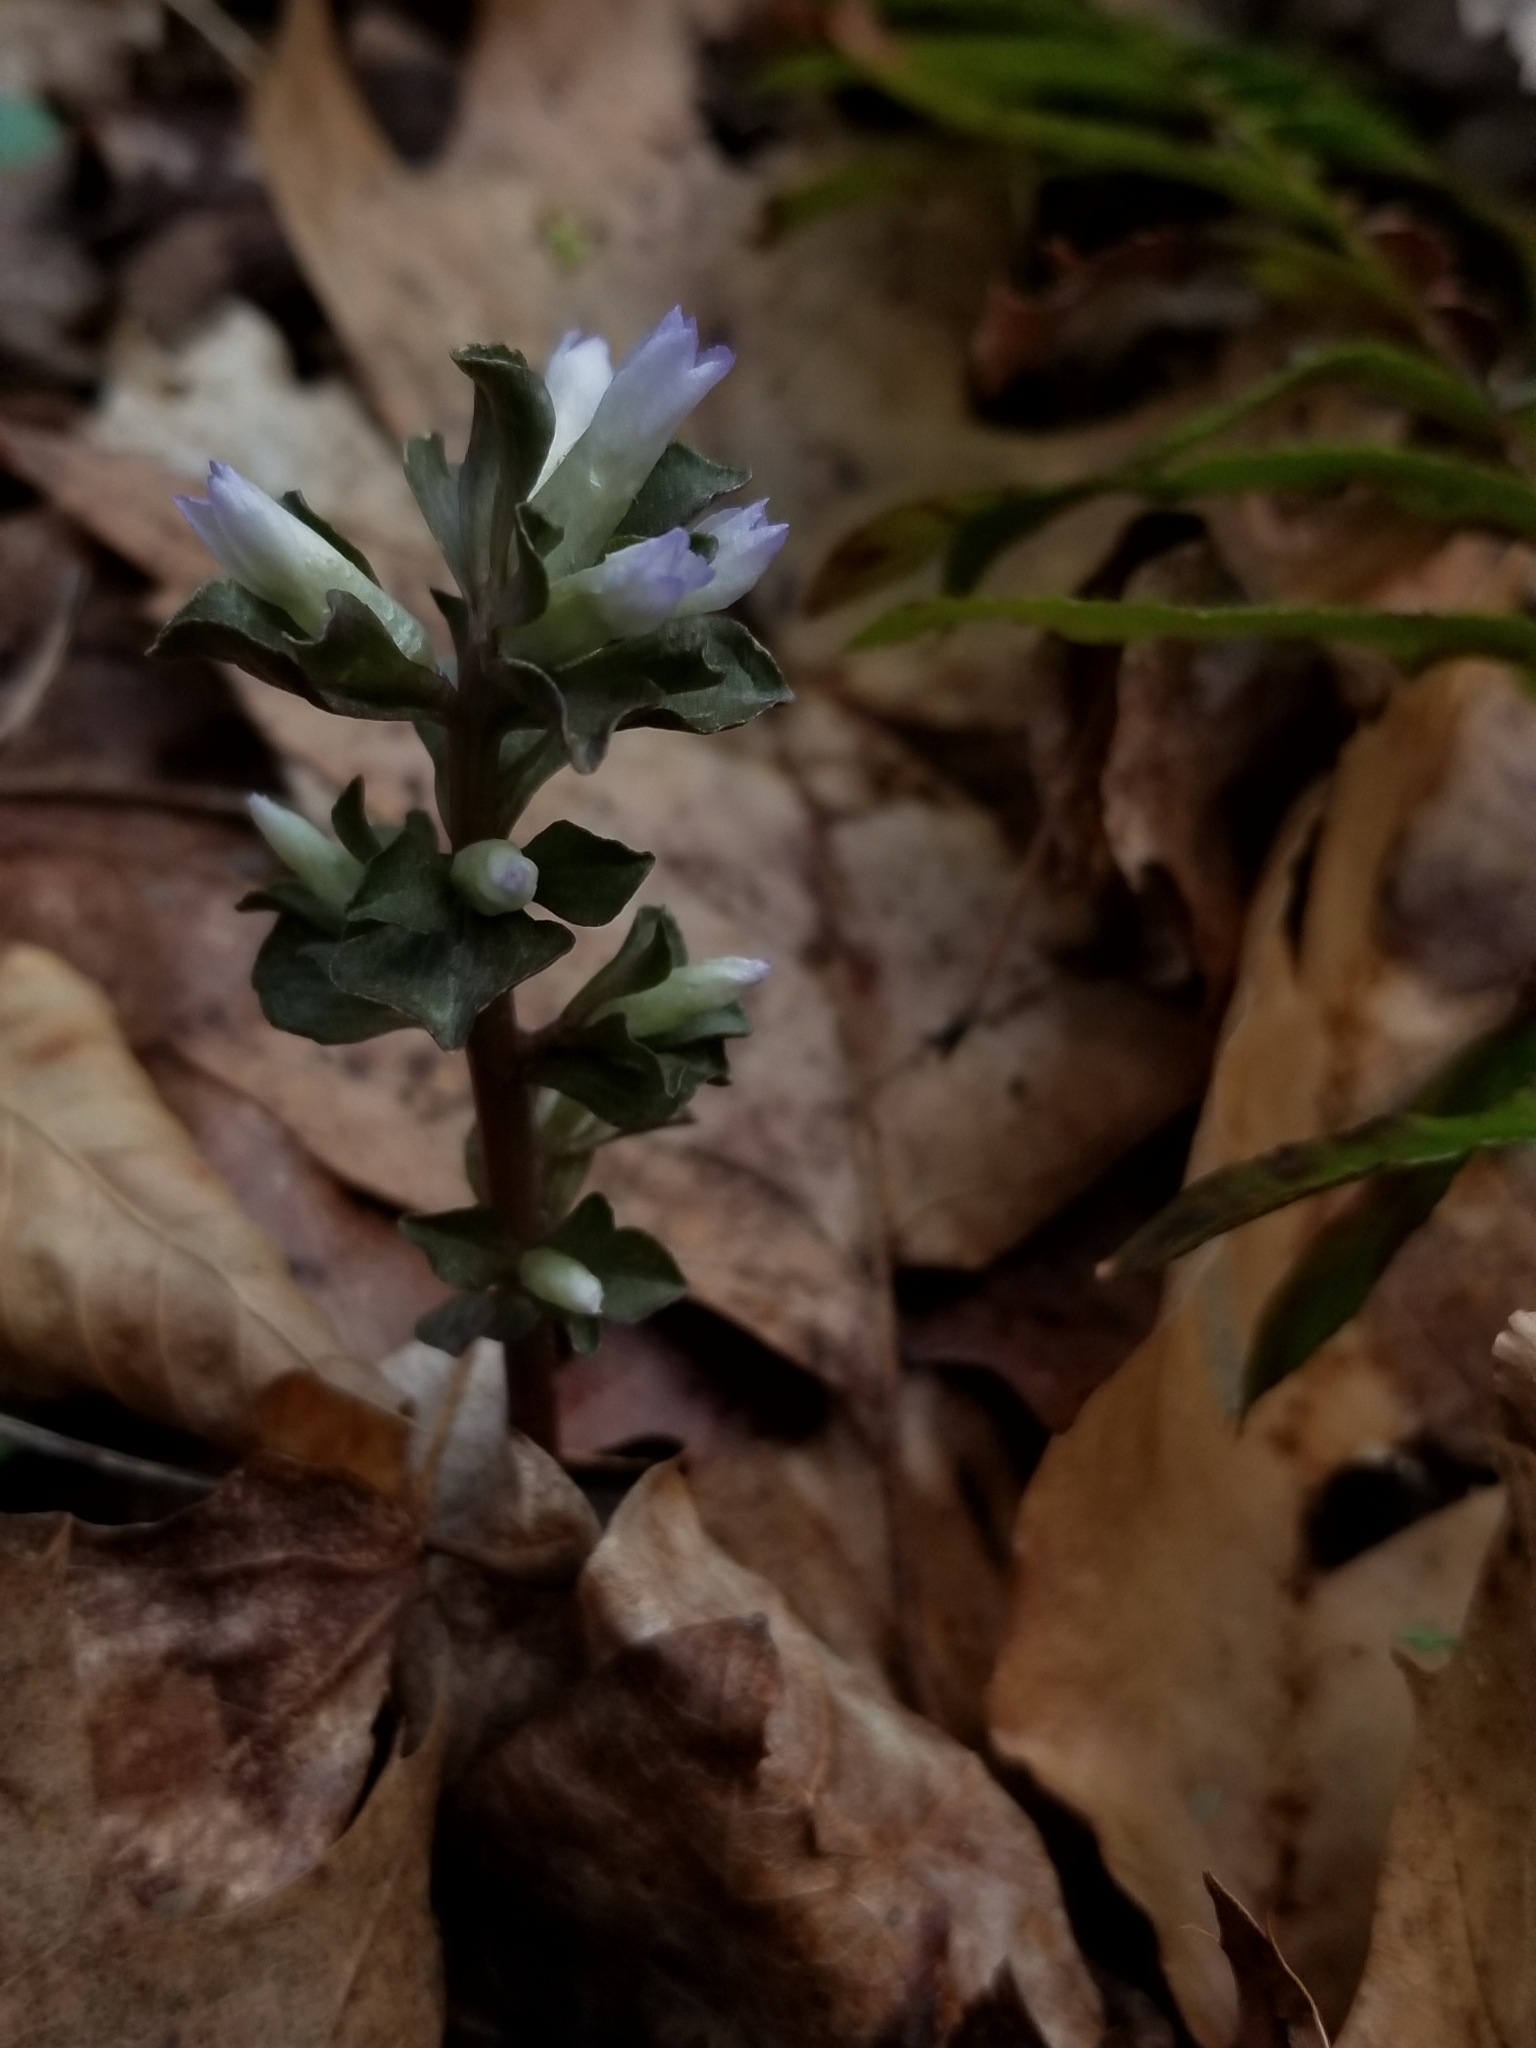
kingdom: Plantae
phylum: Tracheophyta
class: Magnoliopsida
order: Gentianales
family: Gentianaceae
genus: Obolaria
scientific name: Obolaria virginica
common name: Pennywort
